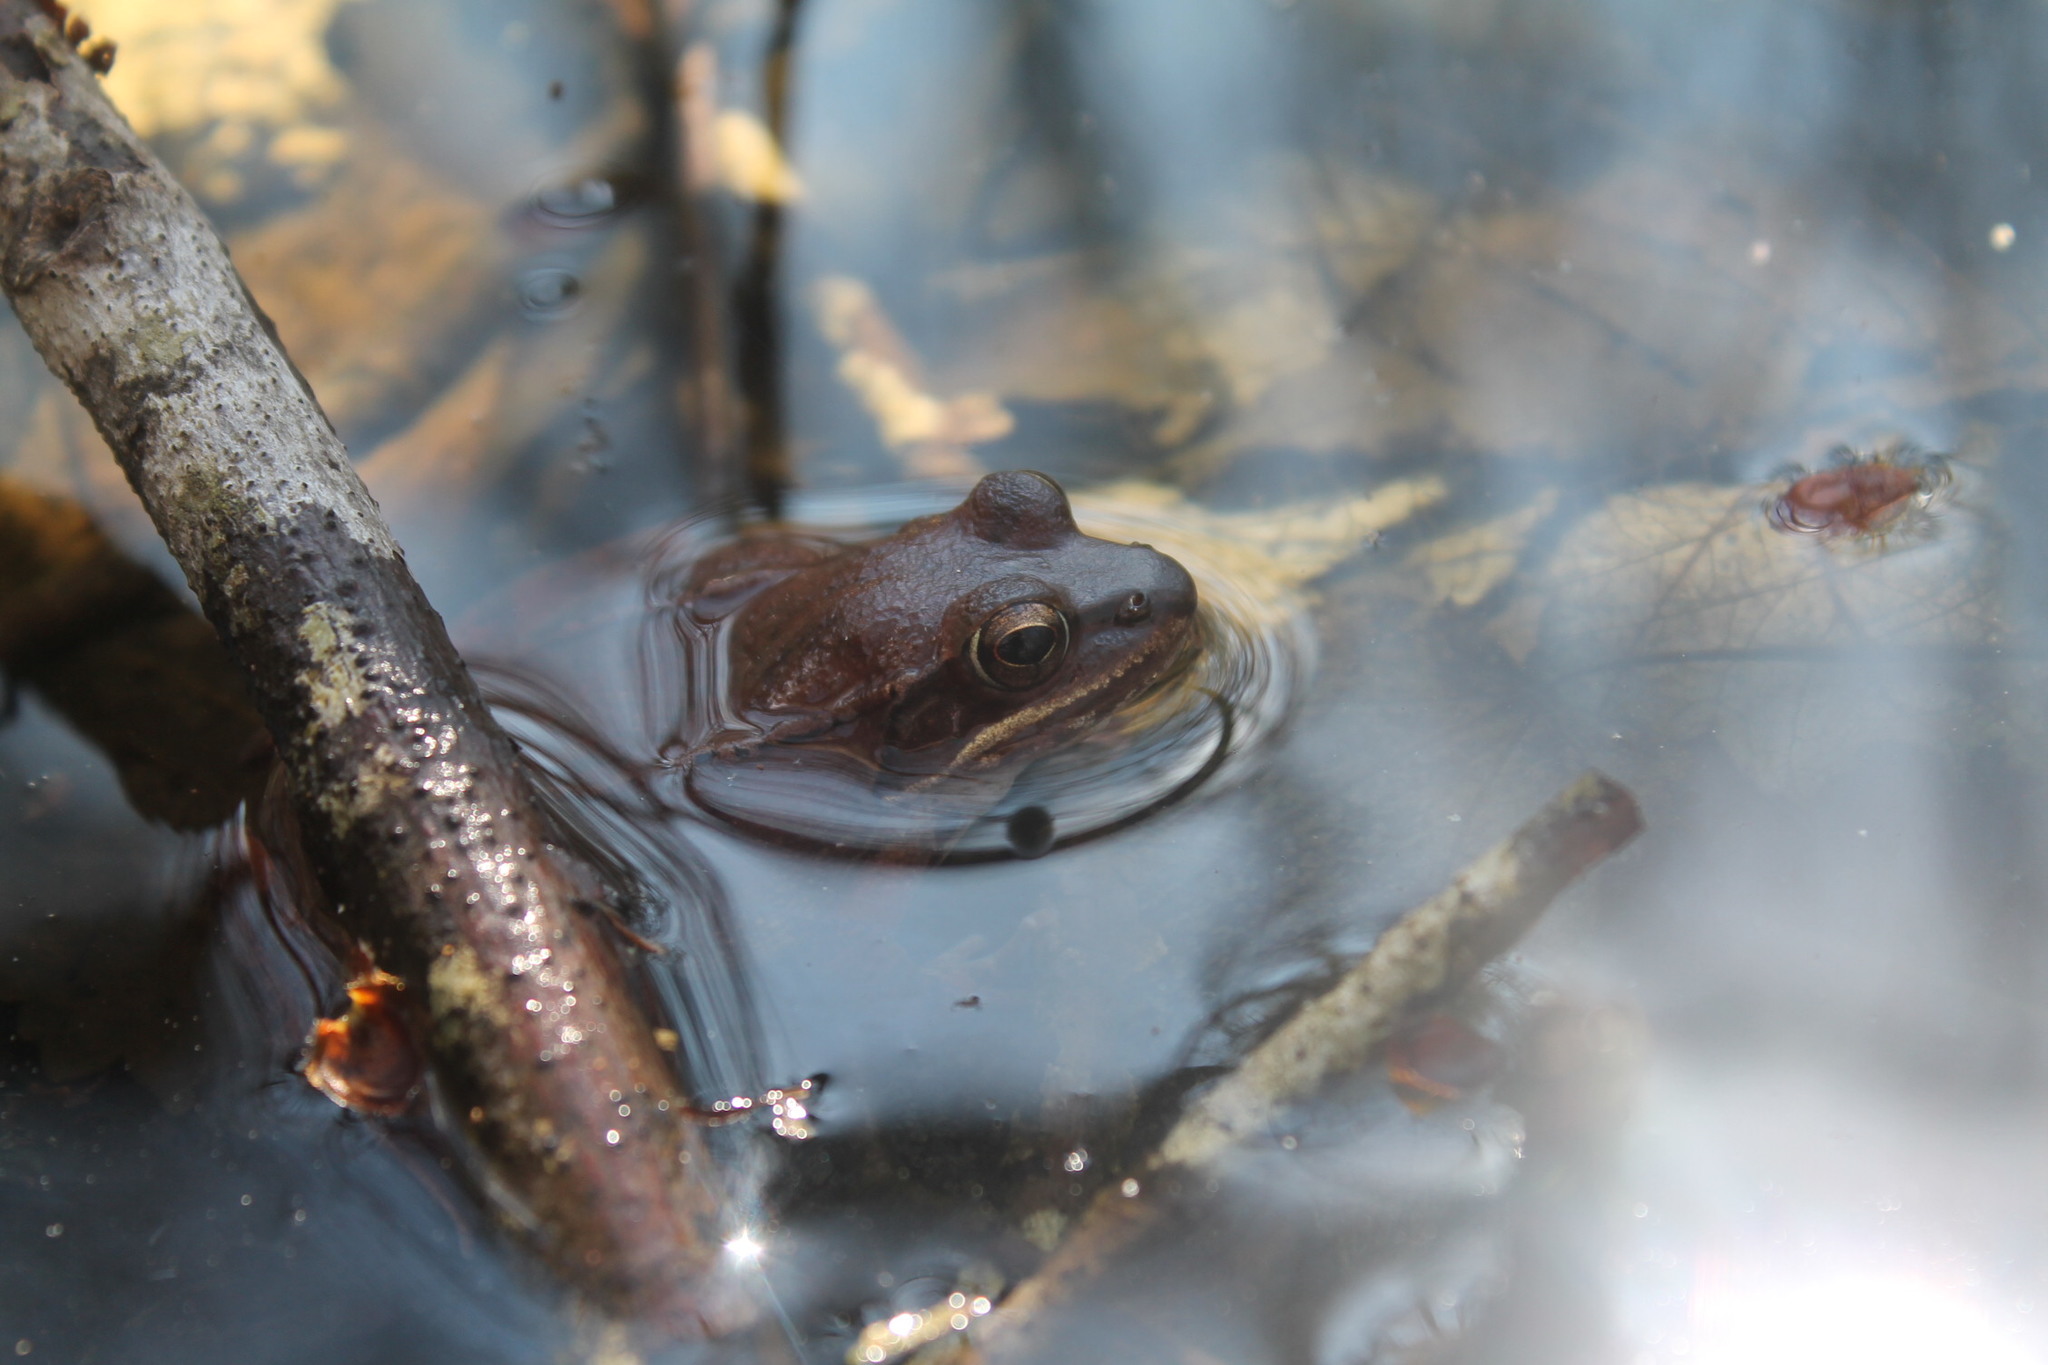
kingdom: Animalia
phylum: Chordata
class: Amphibia
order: Anura
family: Ranidae
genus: Lithobates
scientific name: Lithobates sylvaticus
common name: Wood frog
